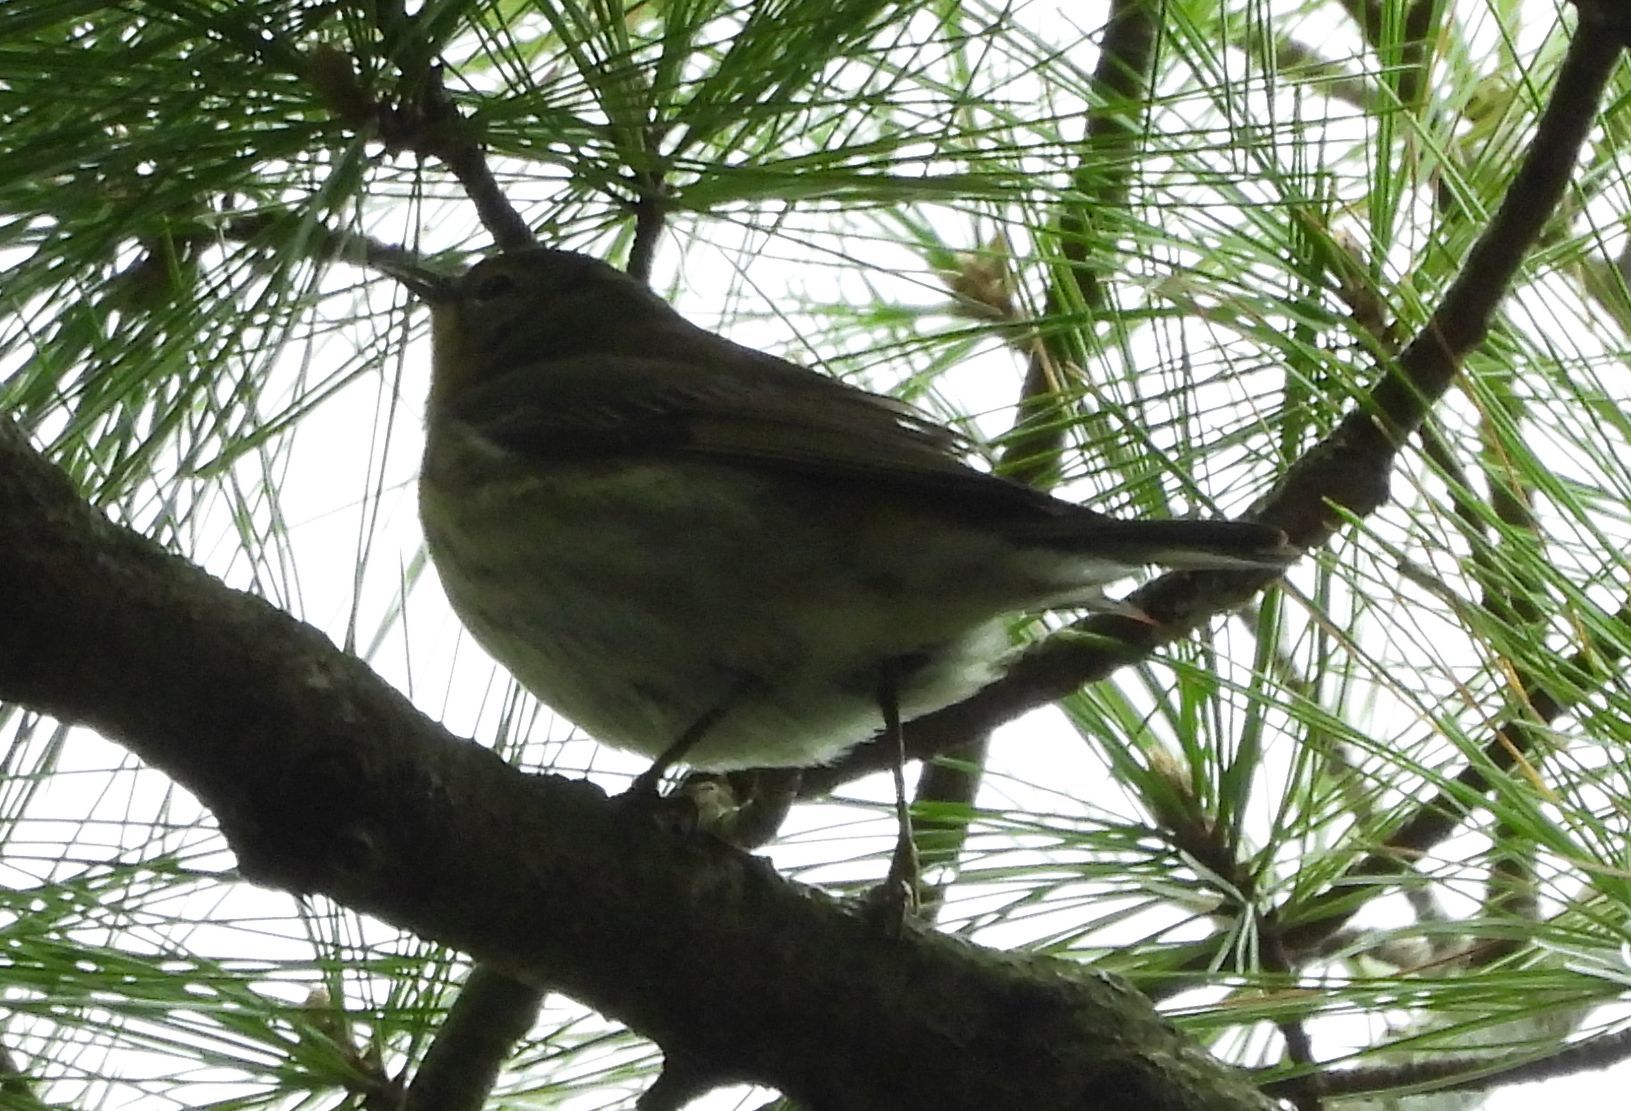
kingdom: Animalia
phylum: Chordata
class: Aves
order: Passeriformes
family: Parulidae
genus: Setophaga
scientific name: Setophaga tigrina
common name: Cape may warbler
